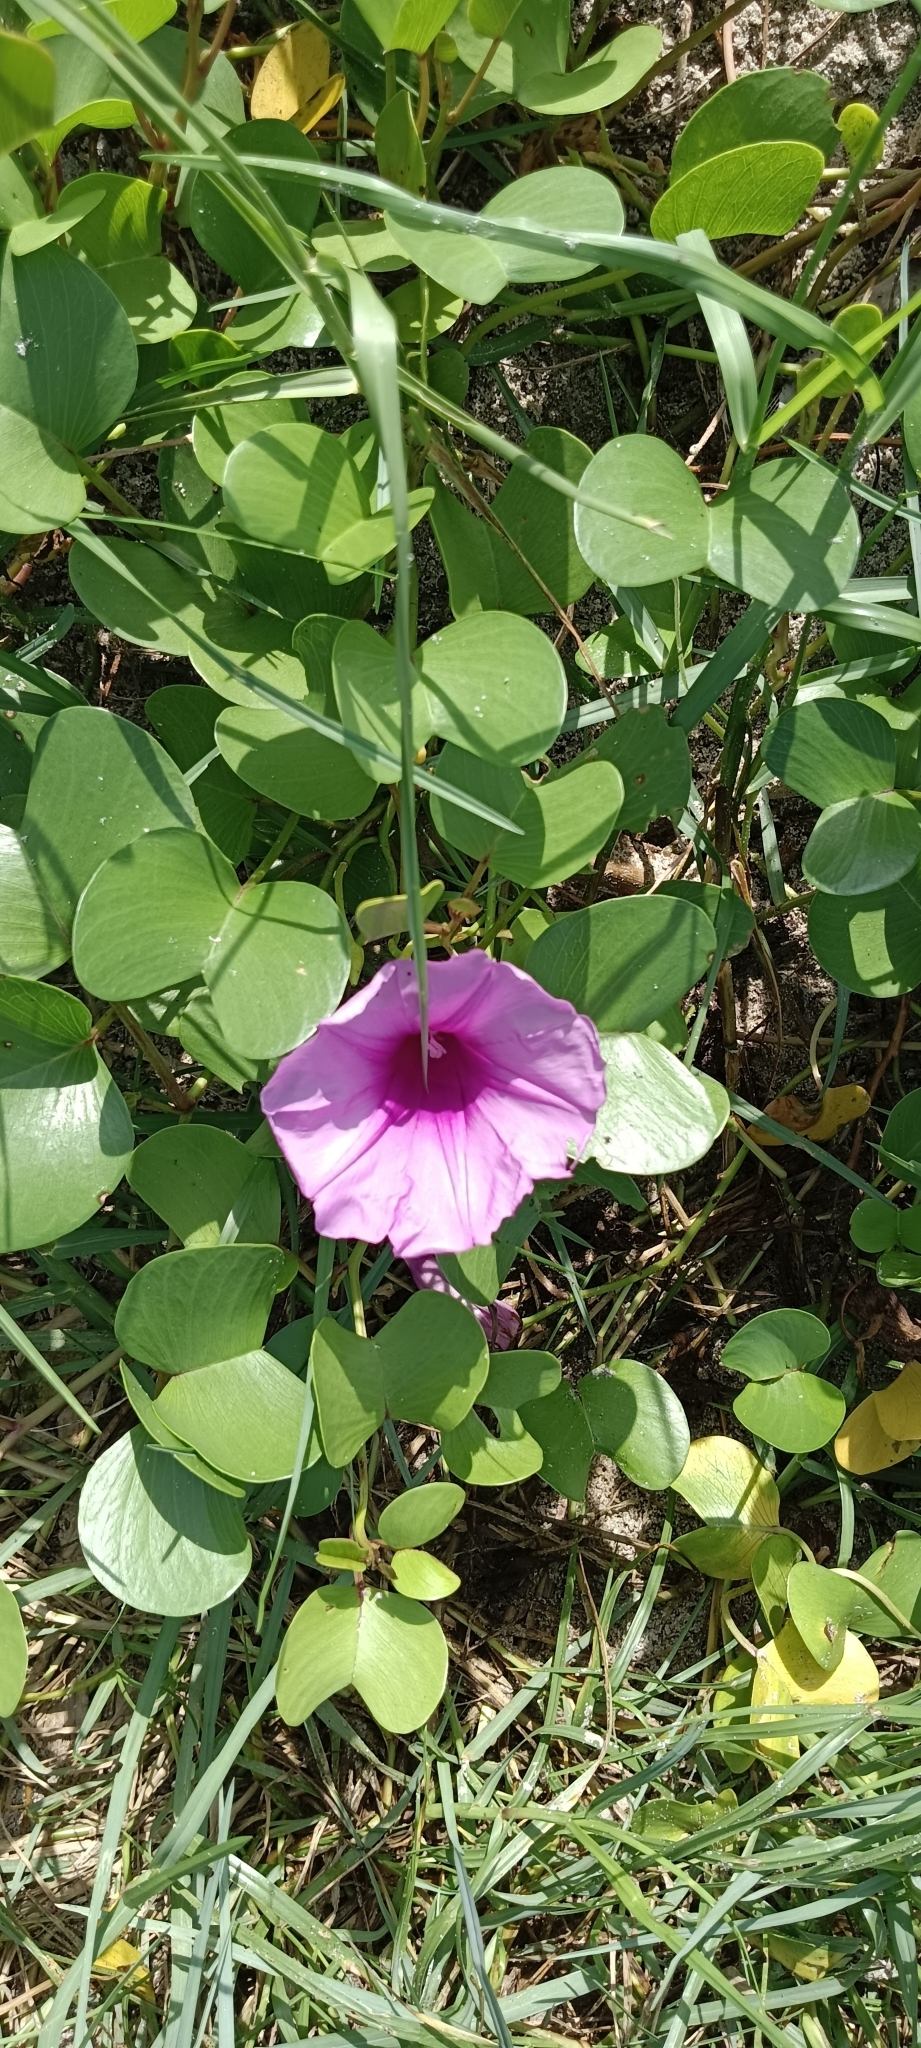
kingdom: Plantae
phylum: Tracheophyta
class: Magnoliopsida
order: Solanales
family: Convolvulaceae
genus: Ipomoea
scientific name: Ipomoea pes-caprae
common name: Beach morning glory
